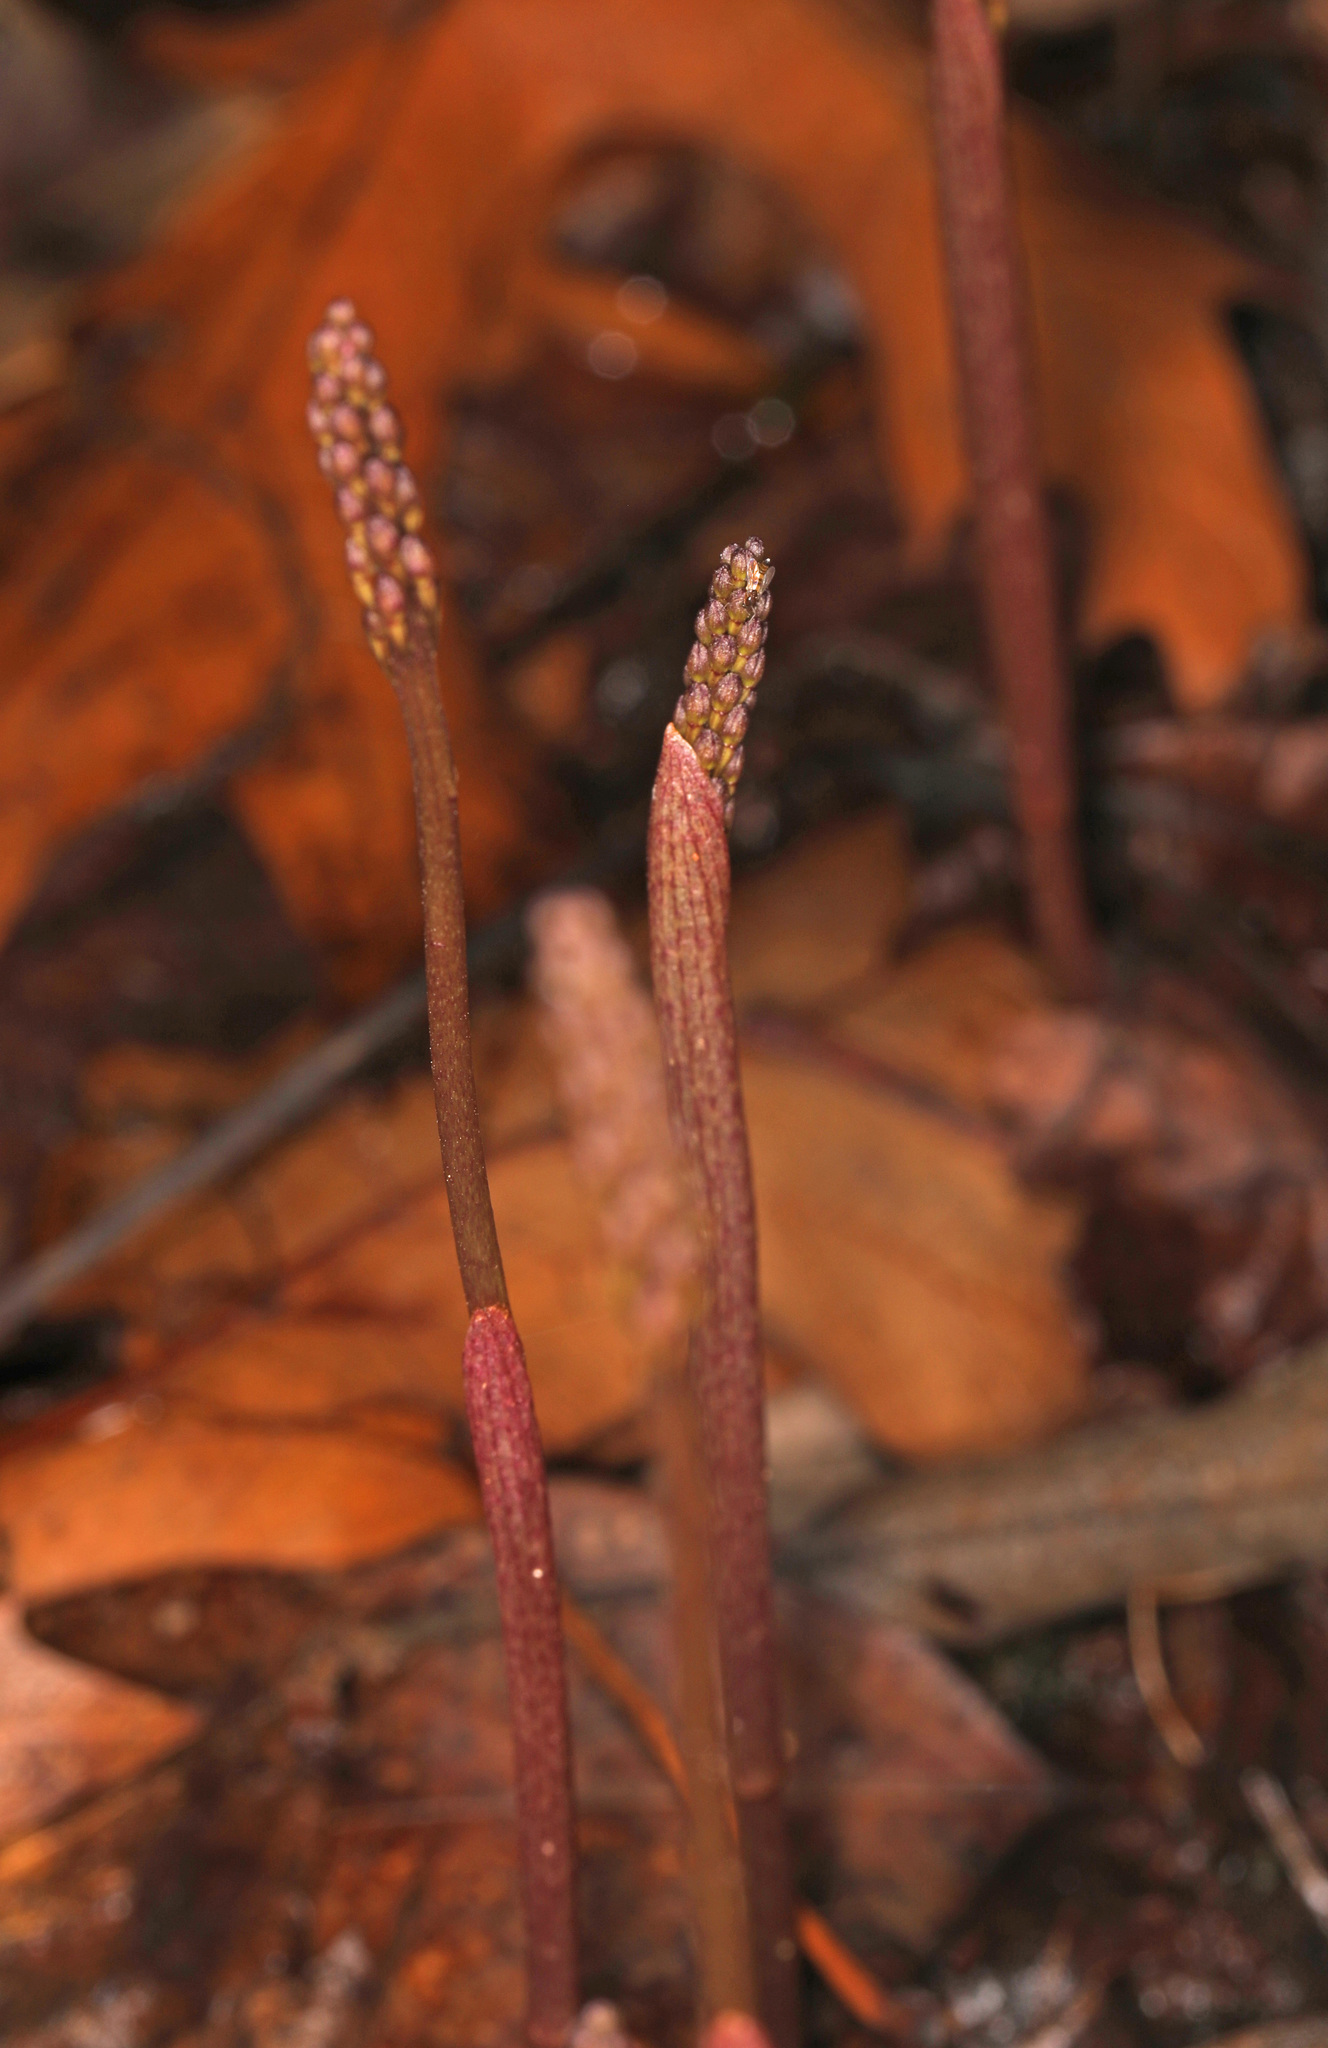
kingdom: Plantae
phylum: Tracheophyta
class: Liliopsida
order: Asparagales
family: Orchidaceae
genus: Tipularia
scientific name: Tipularia discolor
